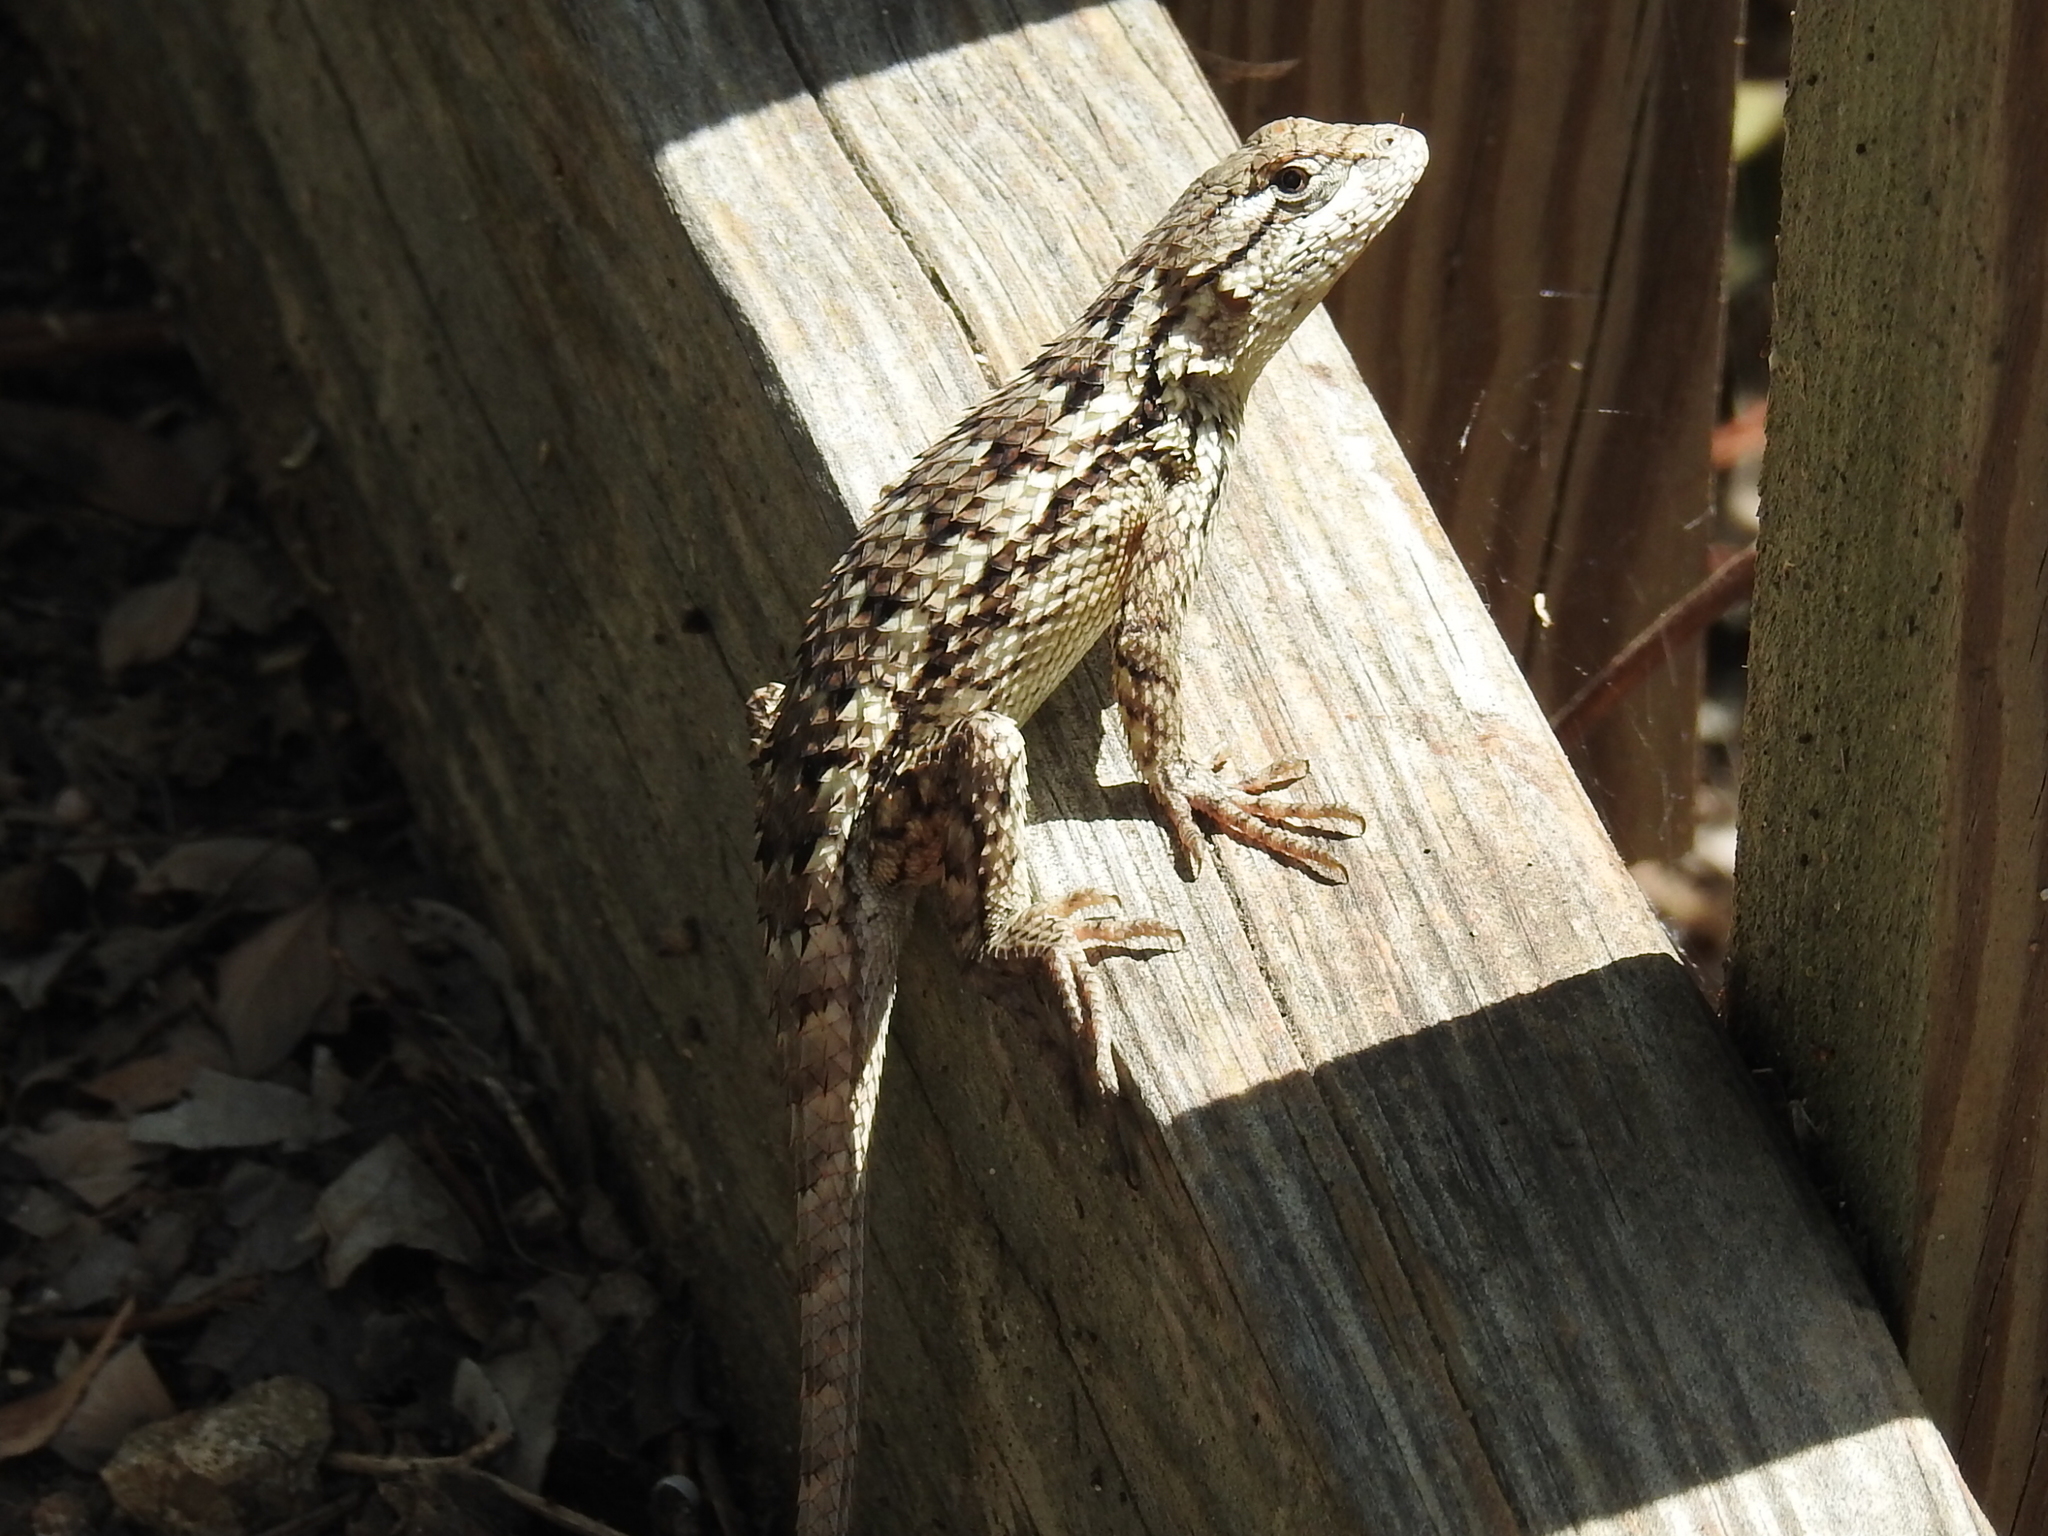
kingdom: Animalia
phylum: Chordata
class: Squamata
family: Phrynosomatidae
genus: Sceloporus
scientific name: Sceloporus olivaceus
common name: Texas spiny lizard
